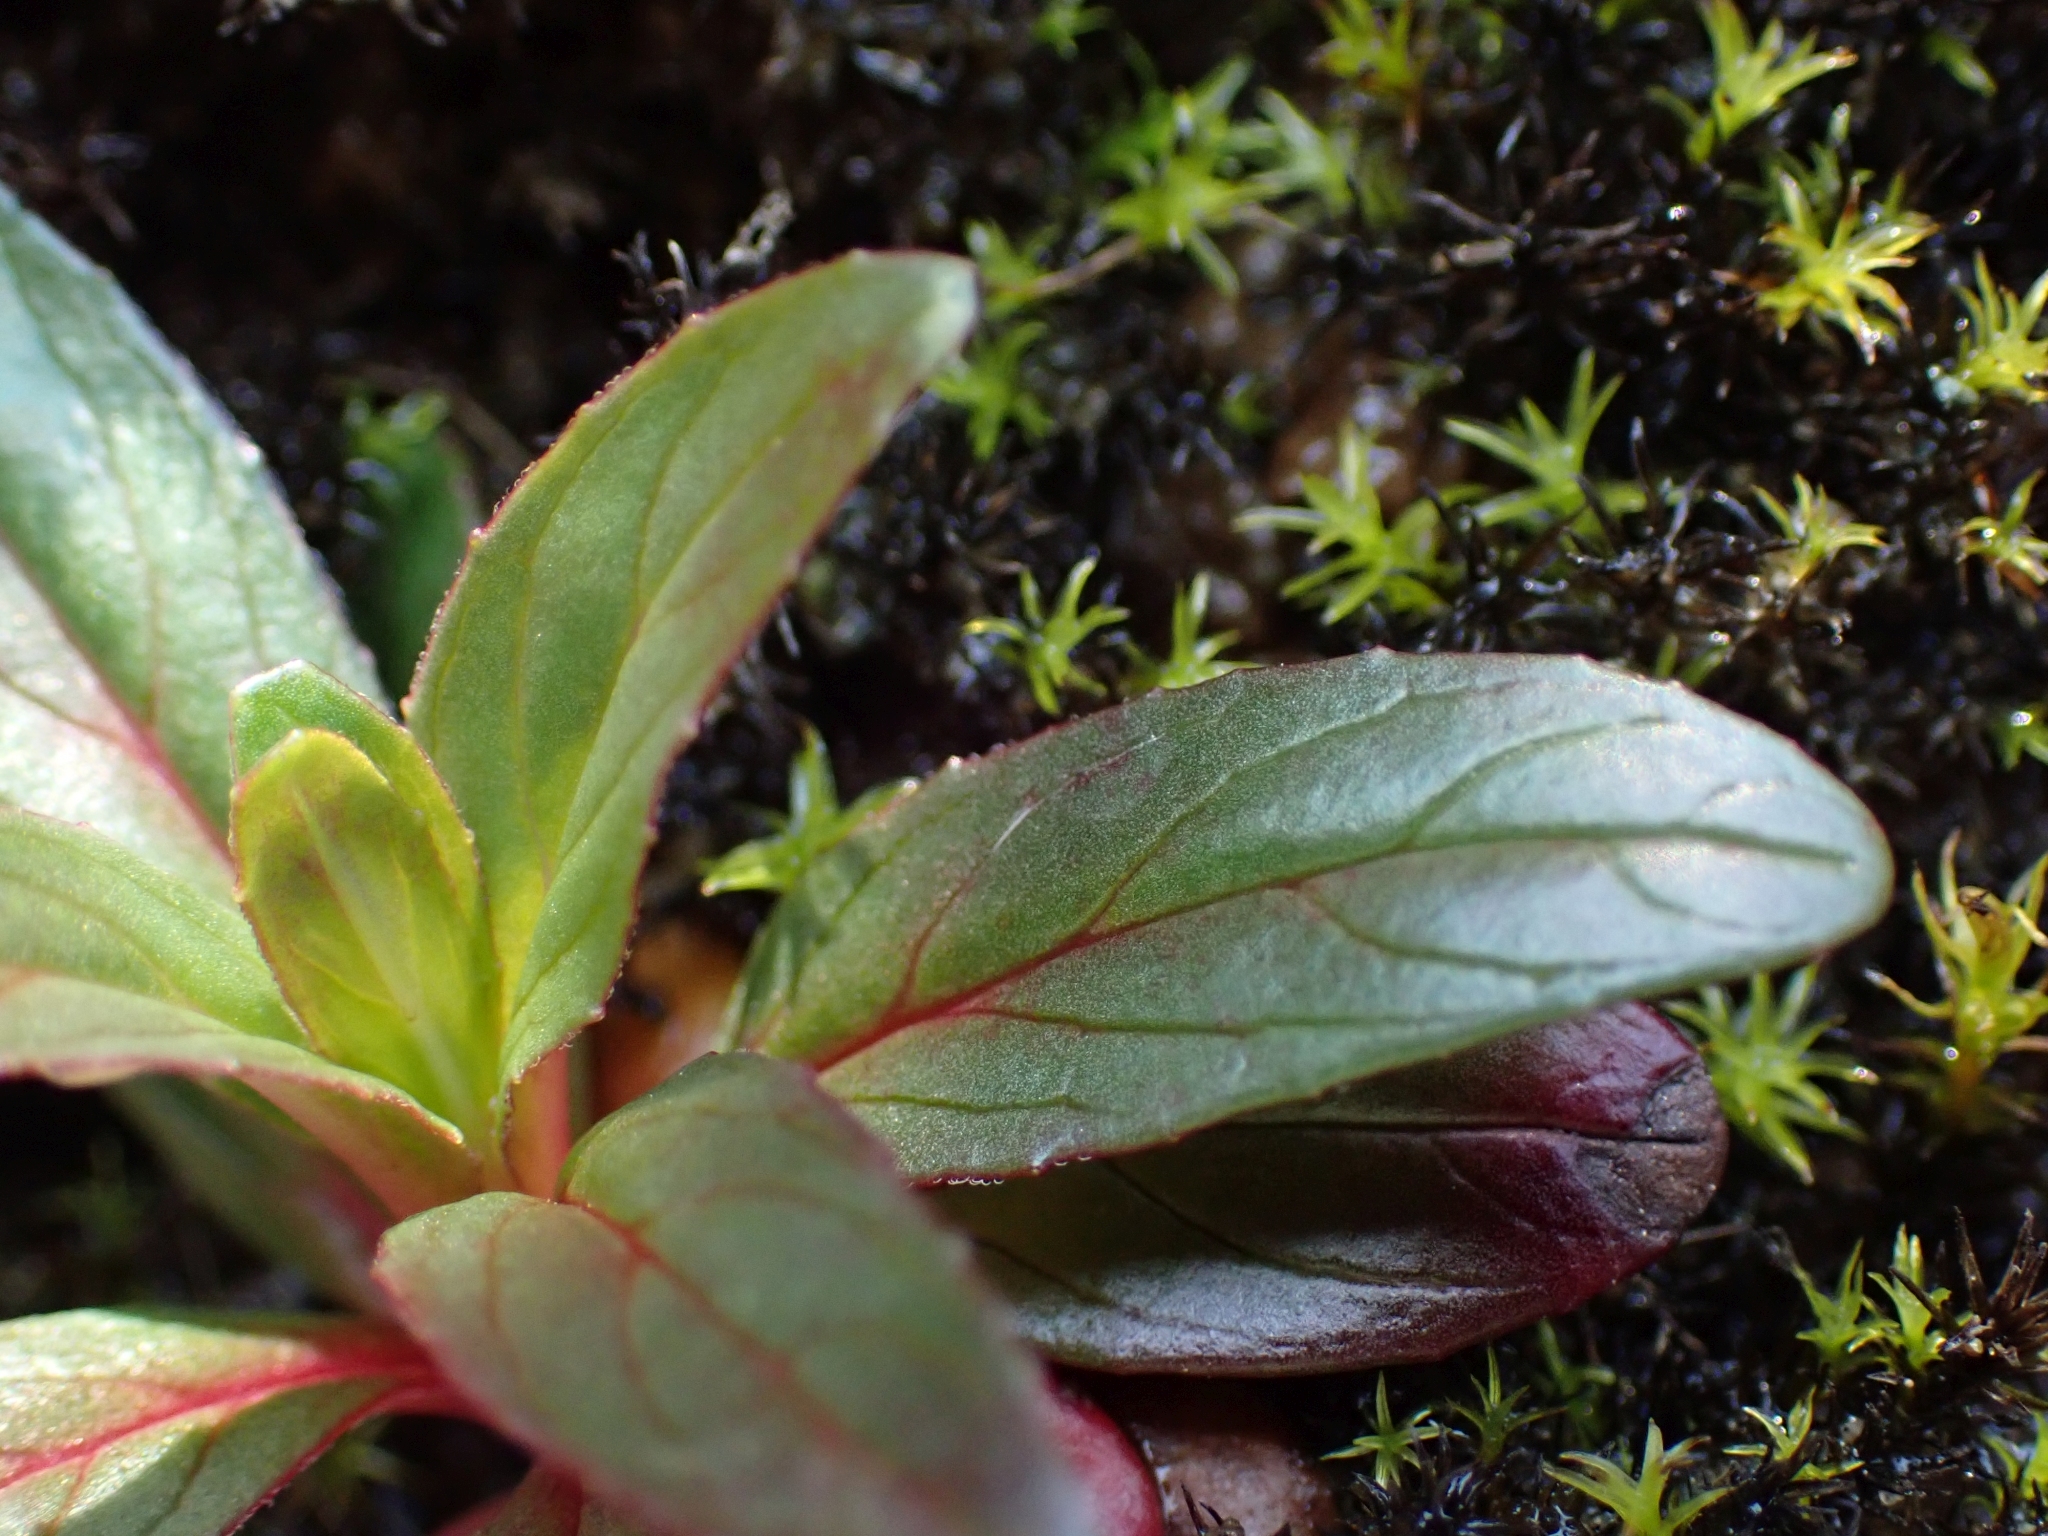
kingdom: Plantae
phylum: Tracheophyta
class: Magnoliopsida
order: Myrtales
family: Onagraceae
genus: Epilobium
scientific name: Epilobium ciliatum
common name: American willowherb
